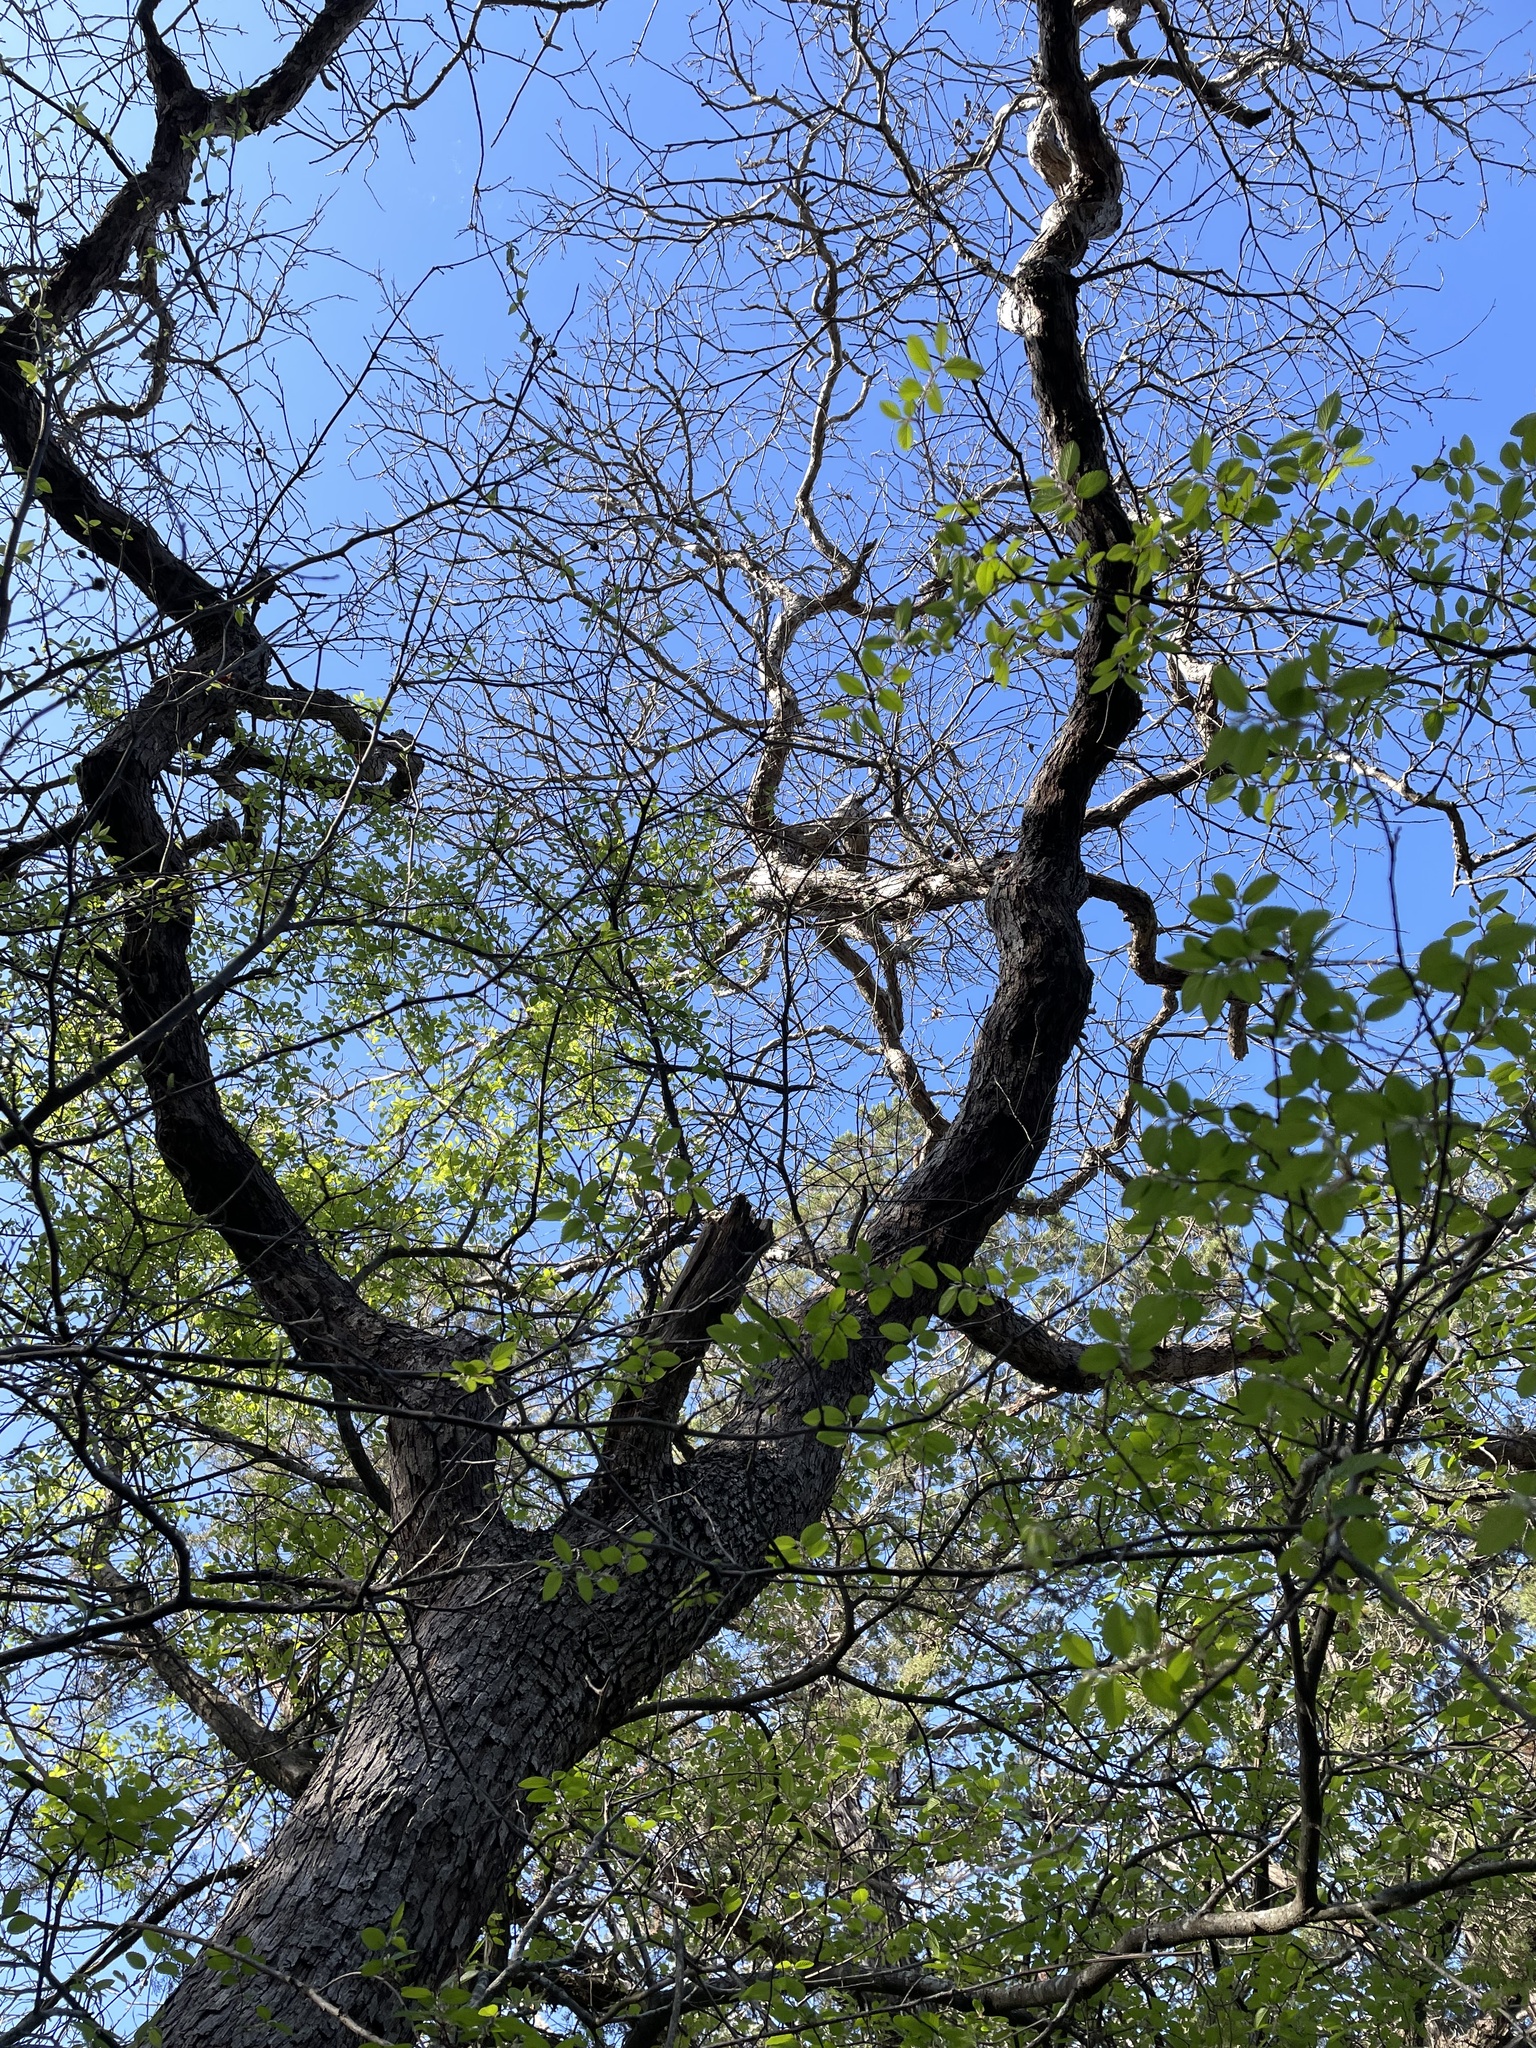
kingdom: Plantae
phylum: Tracheophyta
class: Magnoliopsida
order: Fagales
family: Fagaceae
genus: Quercus
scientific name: Quercus sinuata
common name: Durand oak
